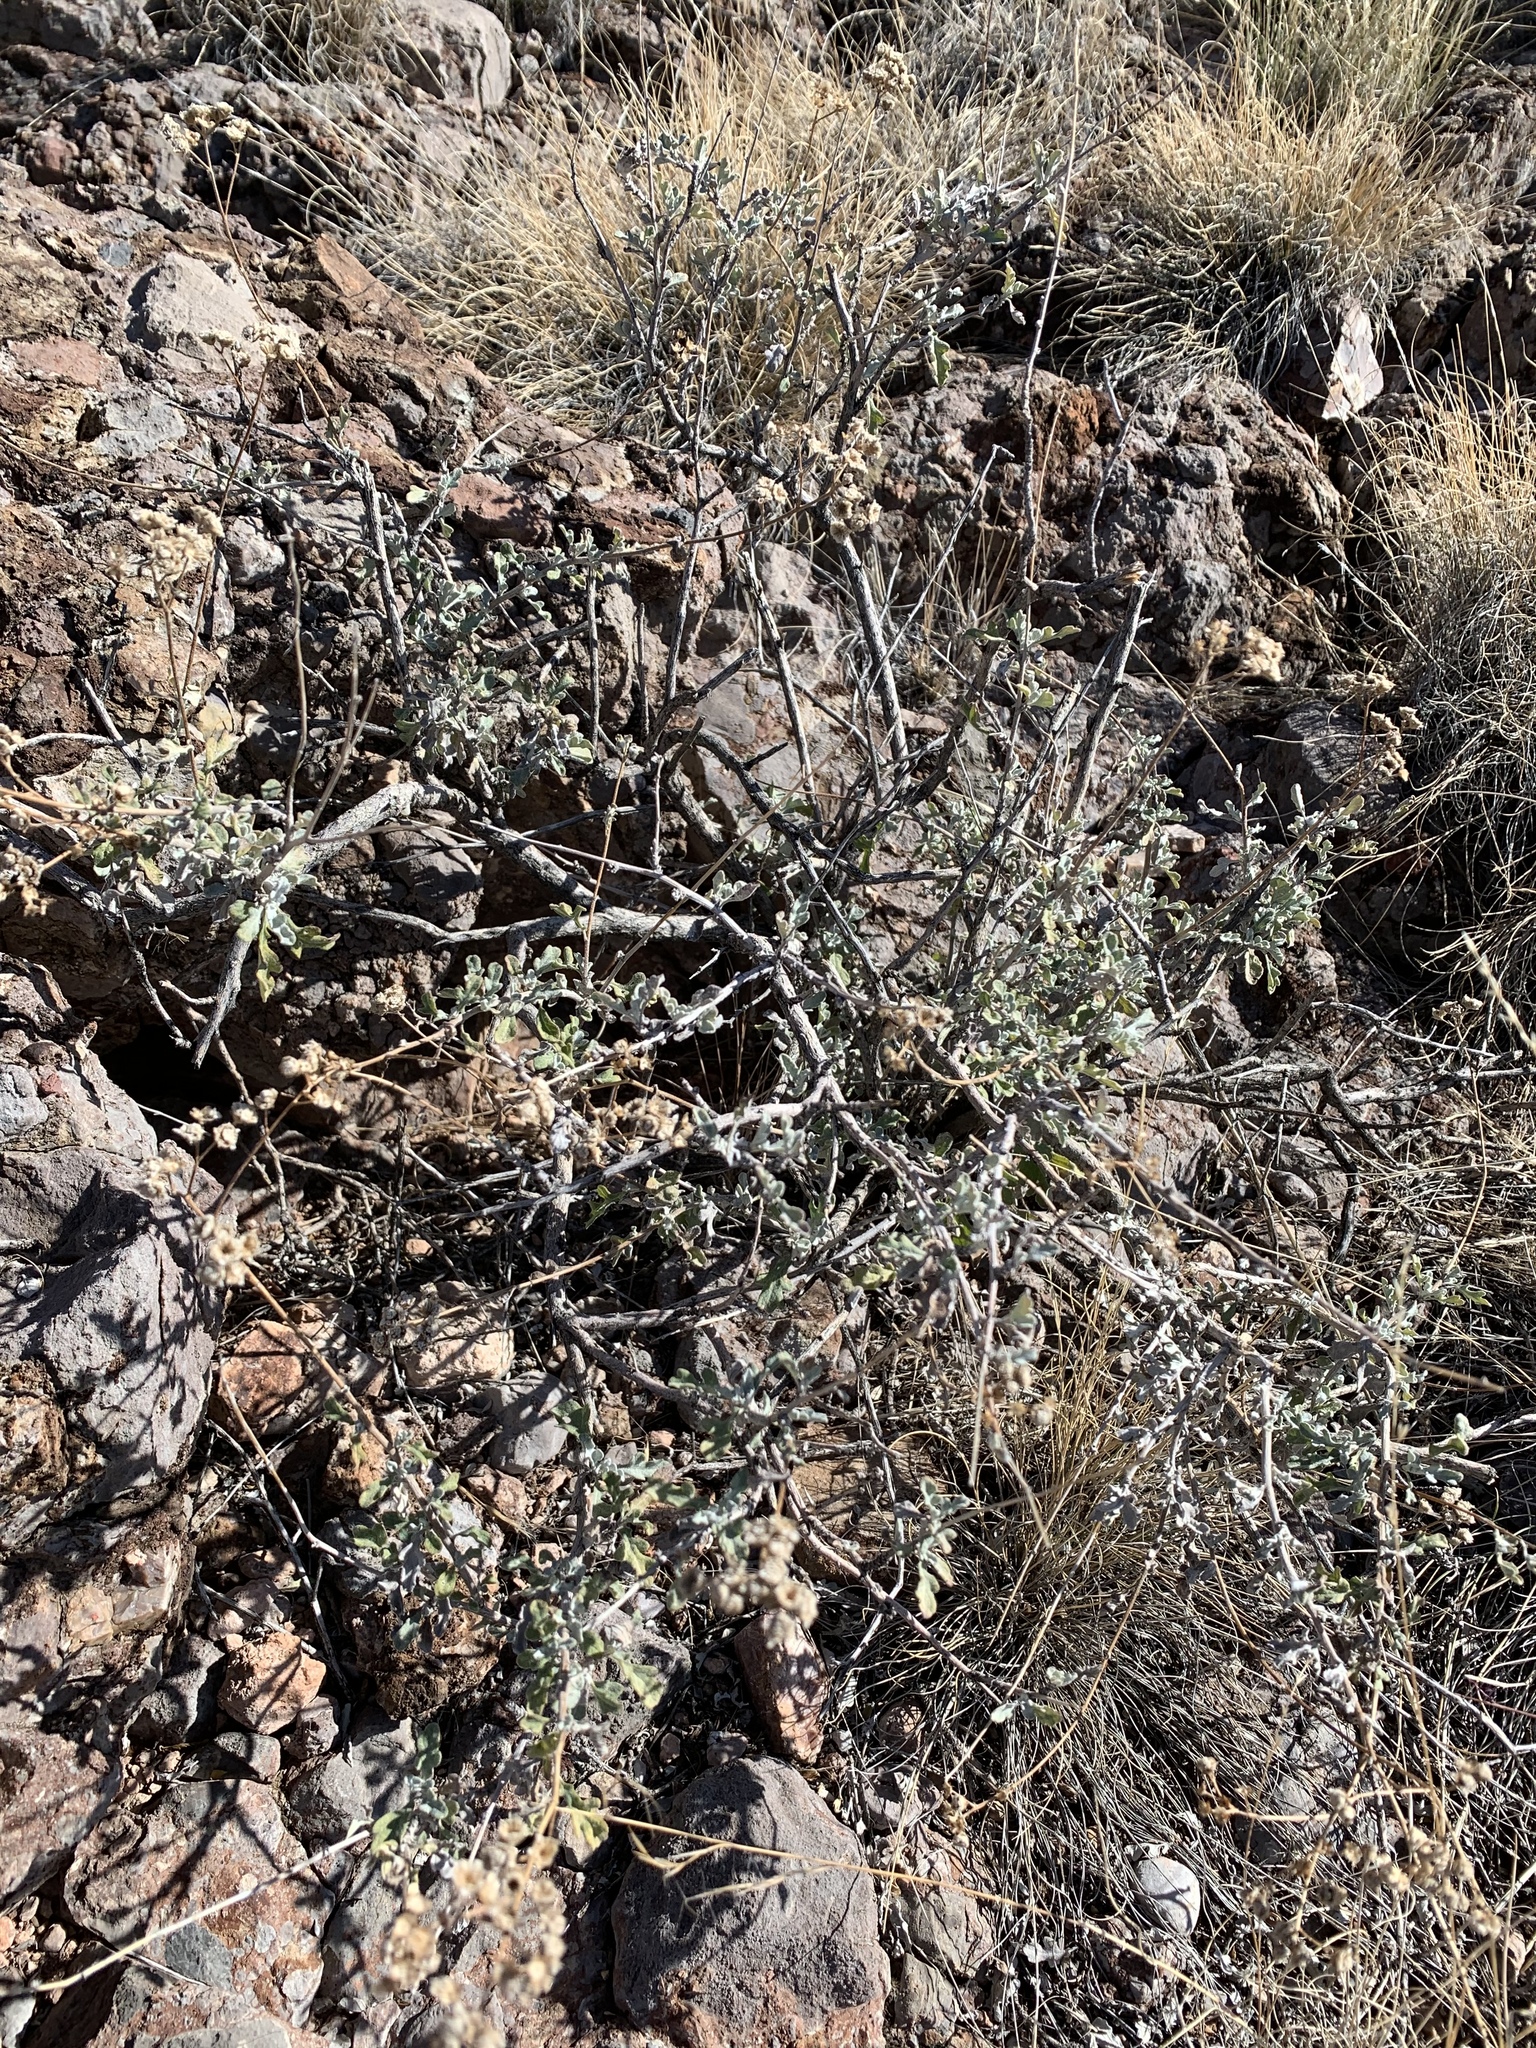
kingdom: Plantae
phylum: Tracheophyta
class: Magnoliopsida
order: Asterales
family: Asteraceae
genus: Parthenium
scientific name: Parthenium incanum
